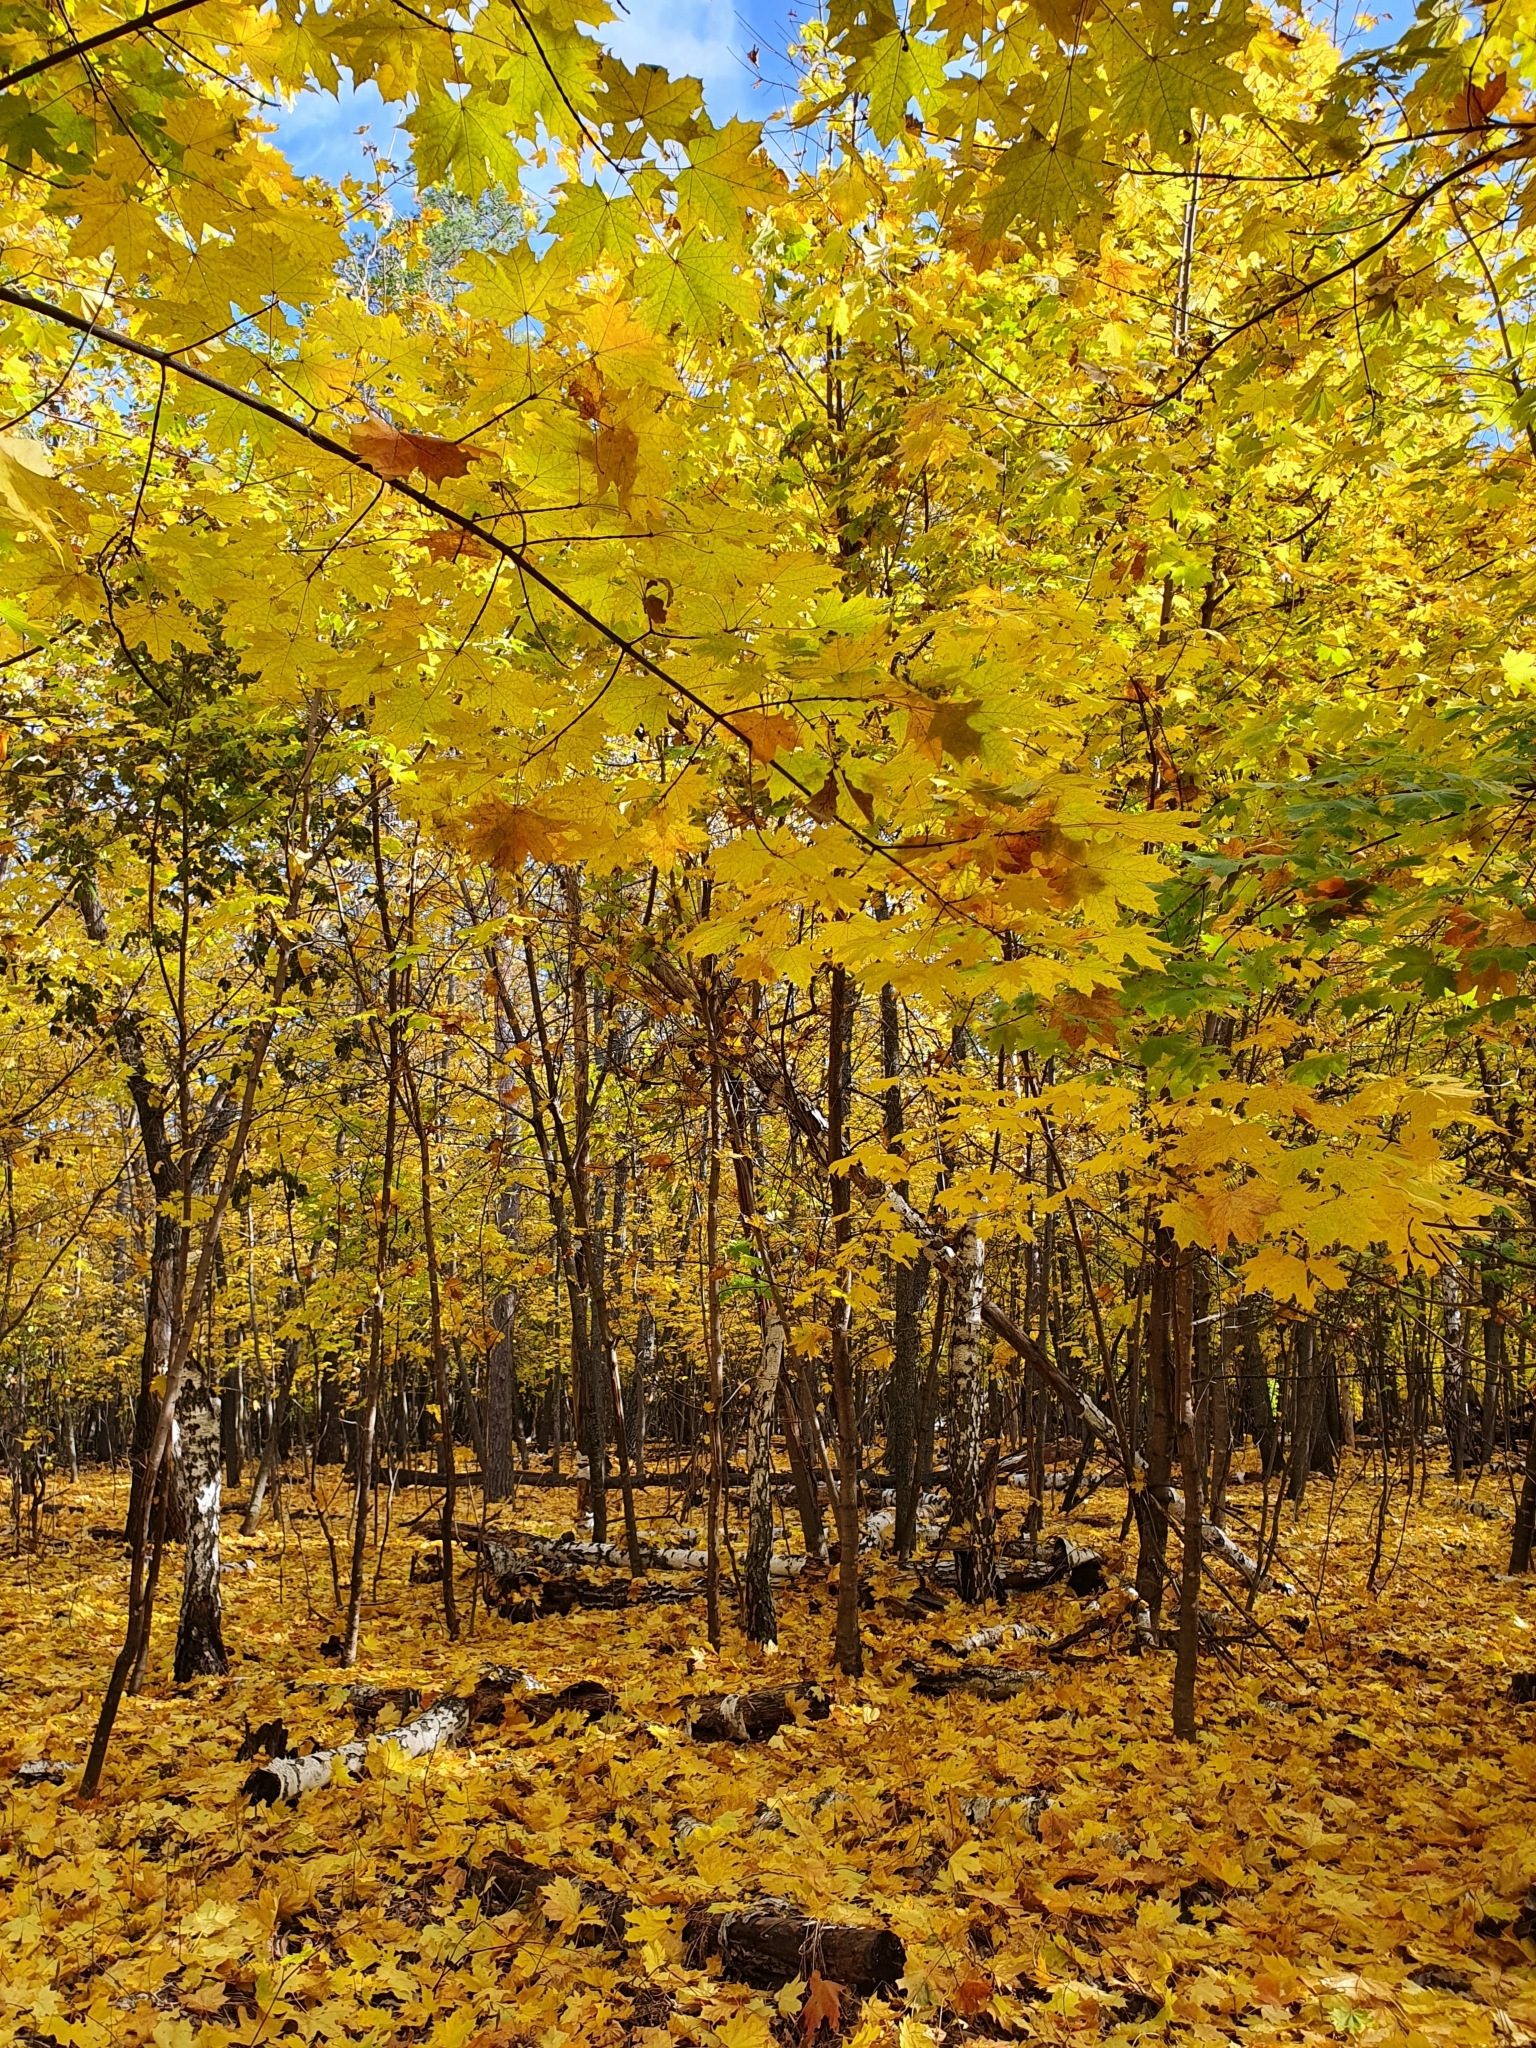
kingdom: Plantae
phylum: Tracheophyta
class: Magnoliopsida
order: Sapindales
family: Sapindaceae
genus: Acer
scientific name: Acer platanoides
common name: Norway maple
